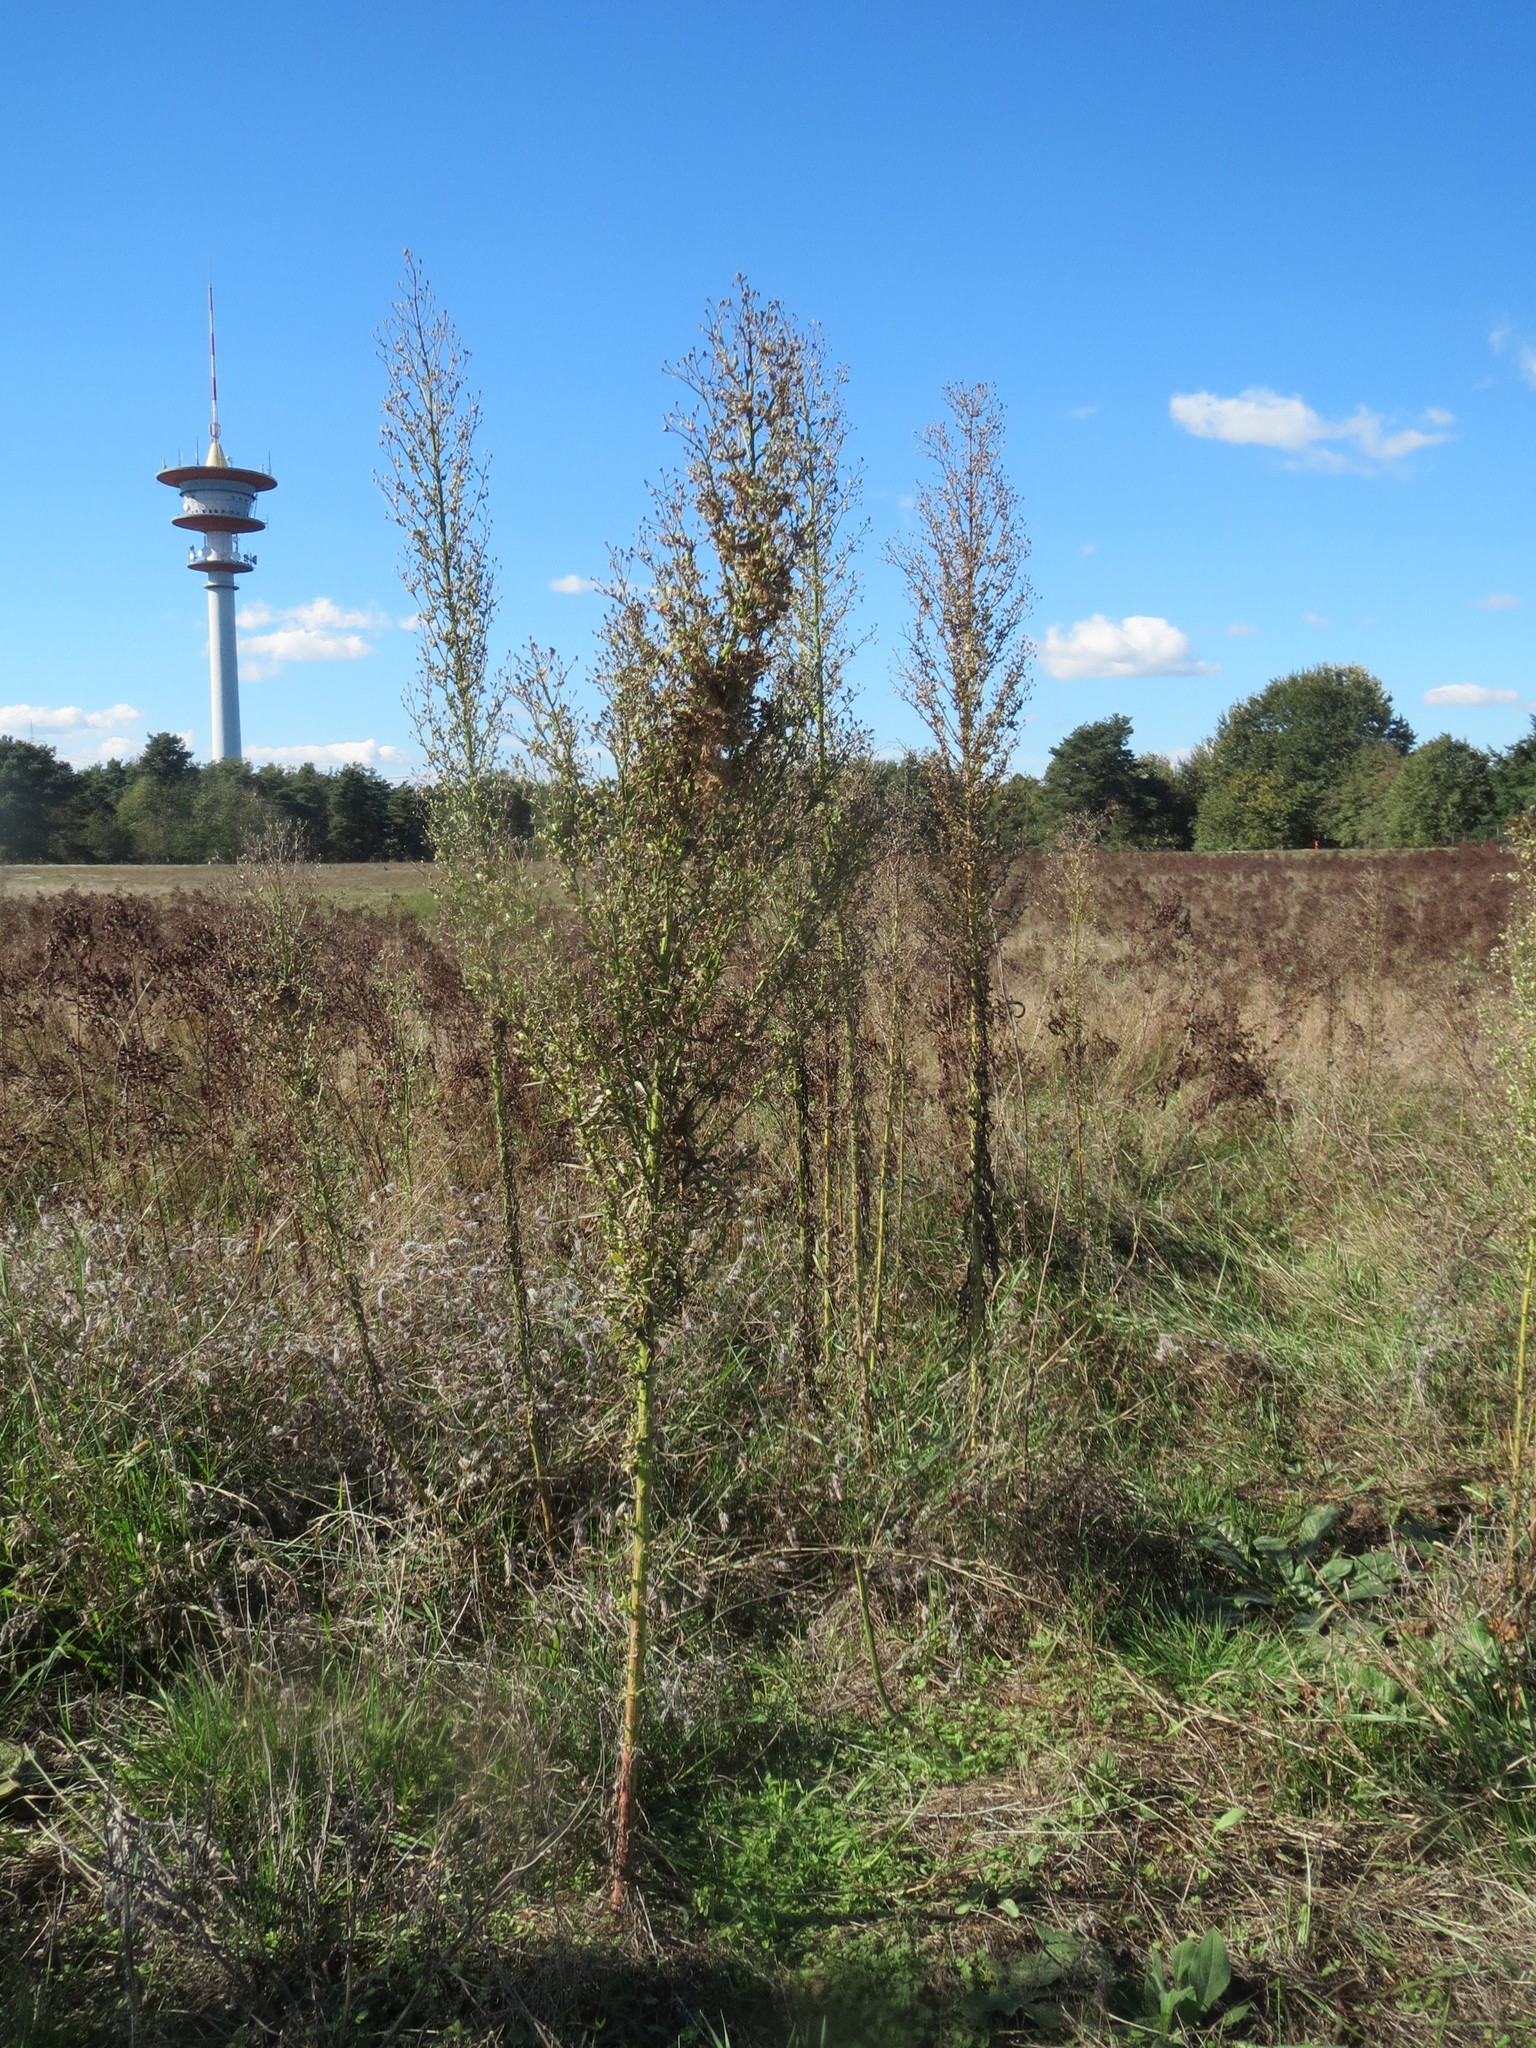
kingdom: Plantae
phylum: Tracheophyta
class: Magnoliopsida
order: Asterales
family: Asteraceae
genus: Erigeron
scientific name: Erigeron canadensis
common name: Canadian fleabane
